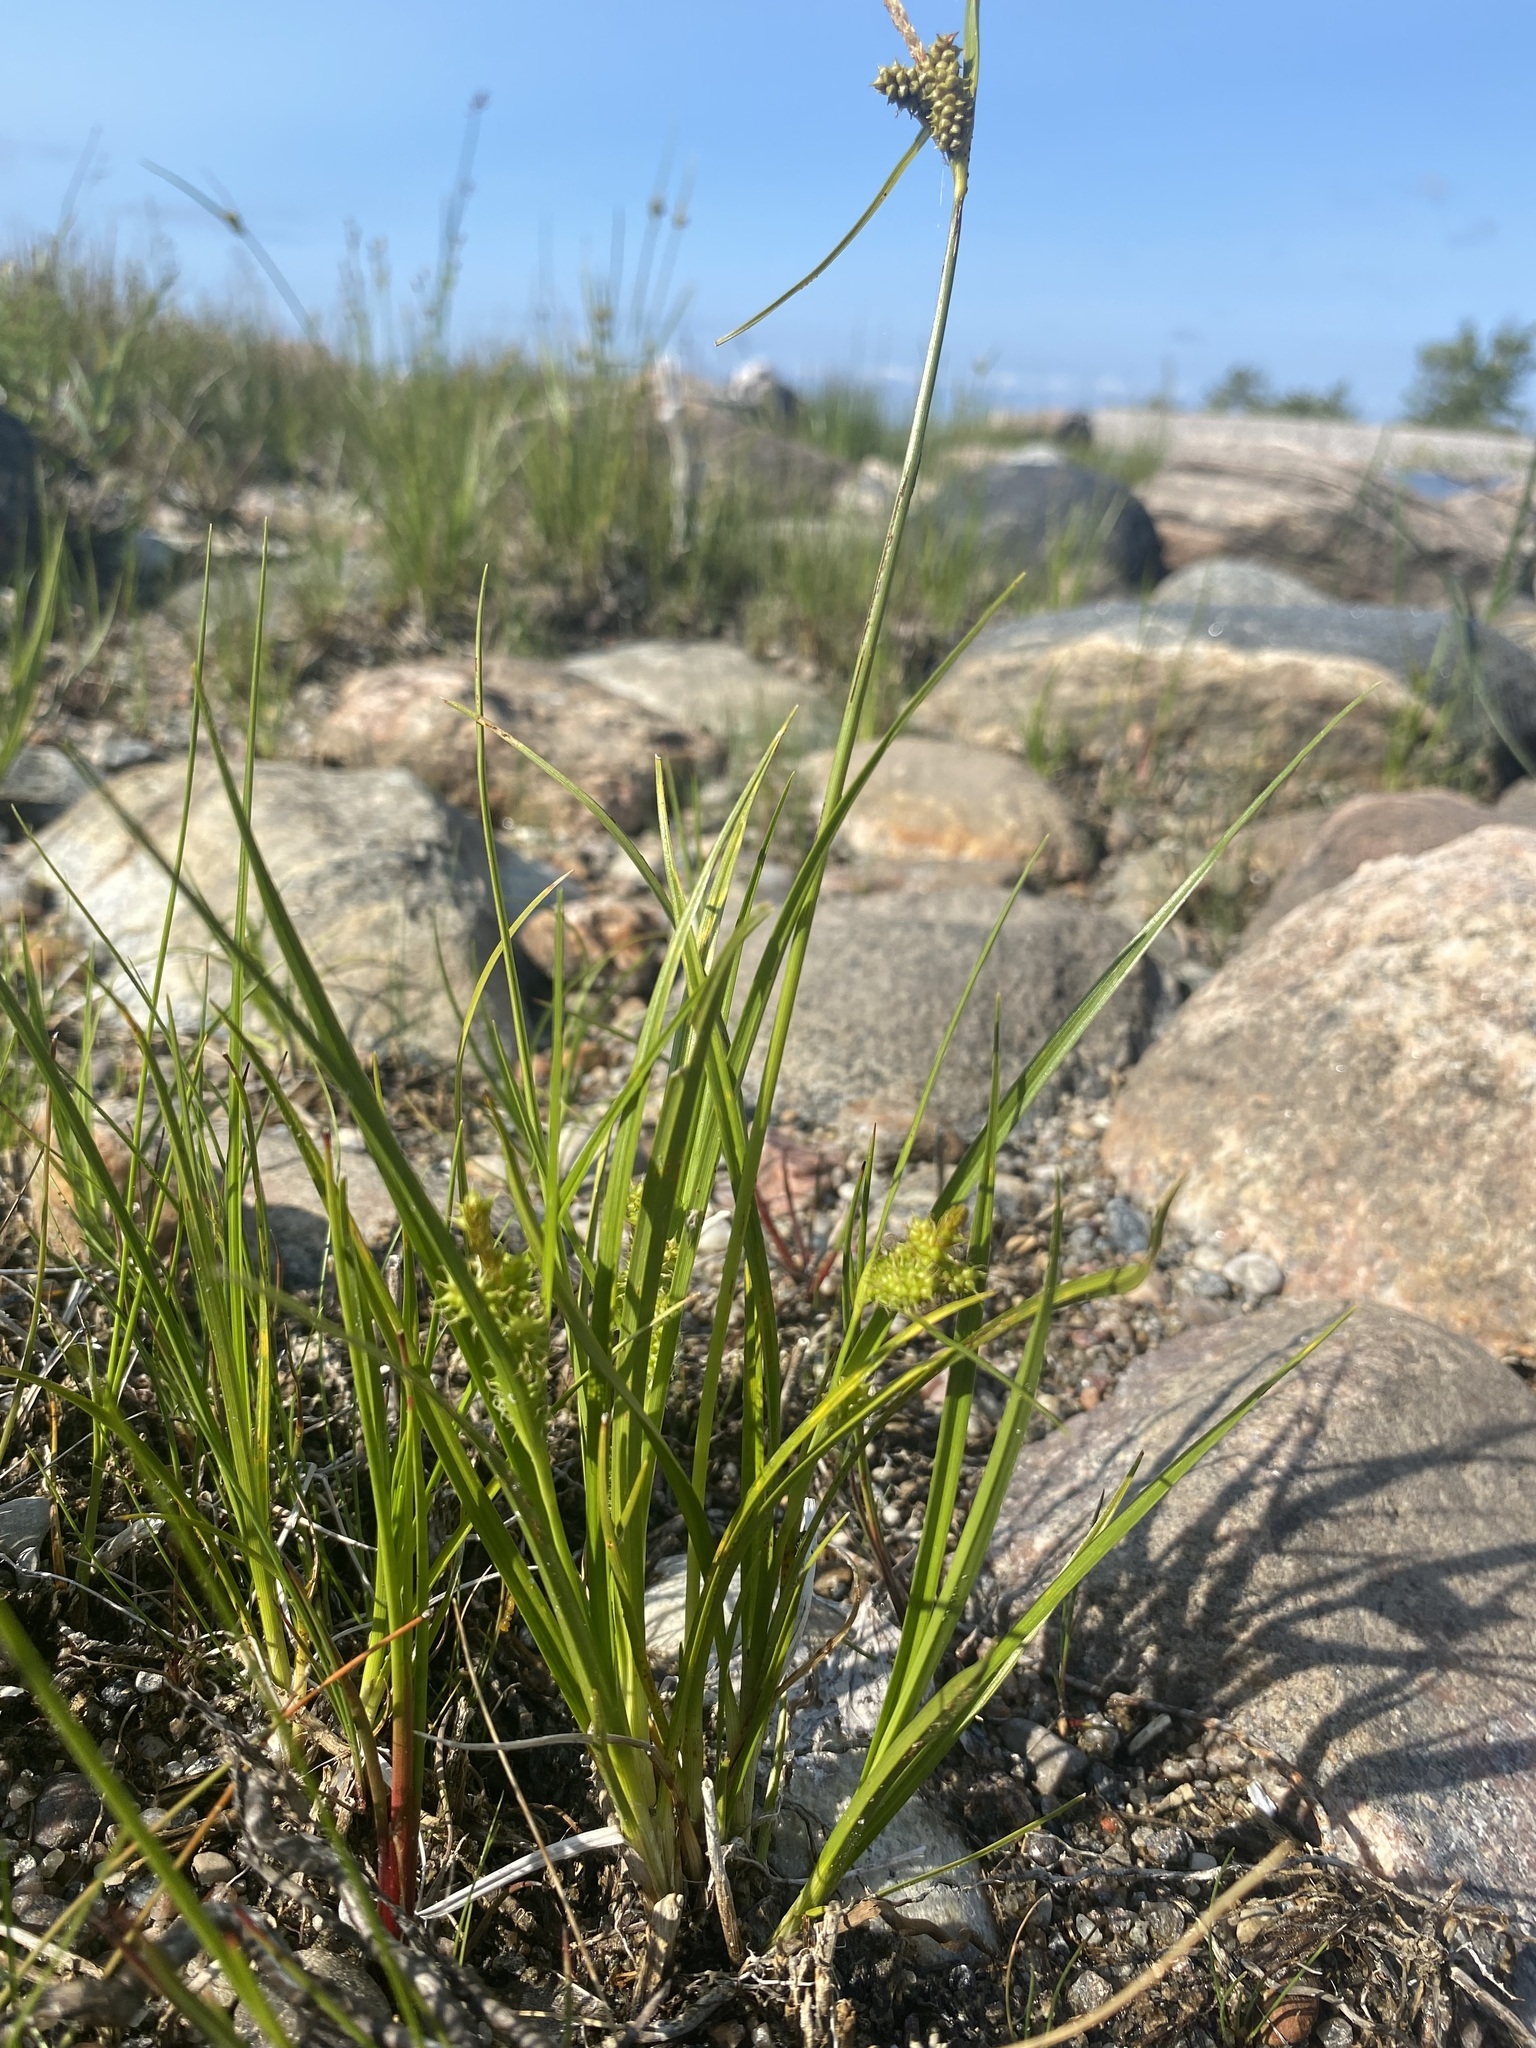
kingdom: Plantae
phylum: Tracheophyta
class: Liliopsida
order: Poales
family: Cyperaceae
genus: Carex
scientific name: Carex
